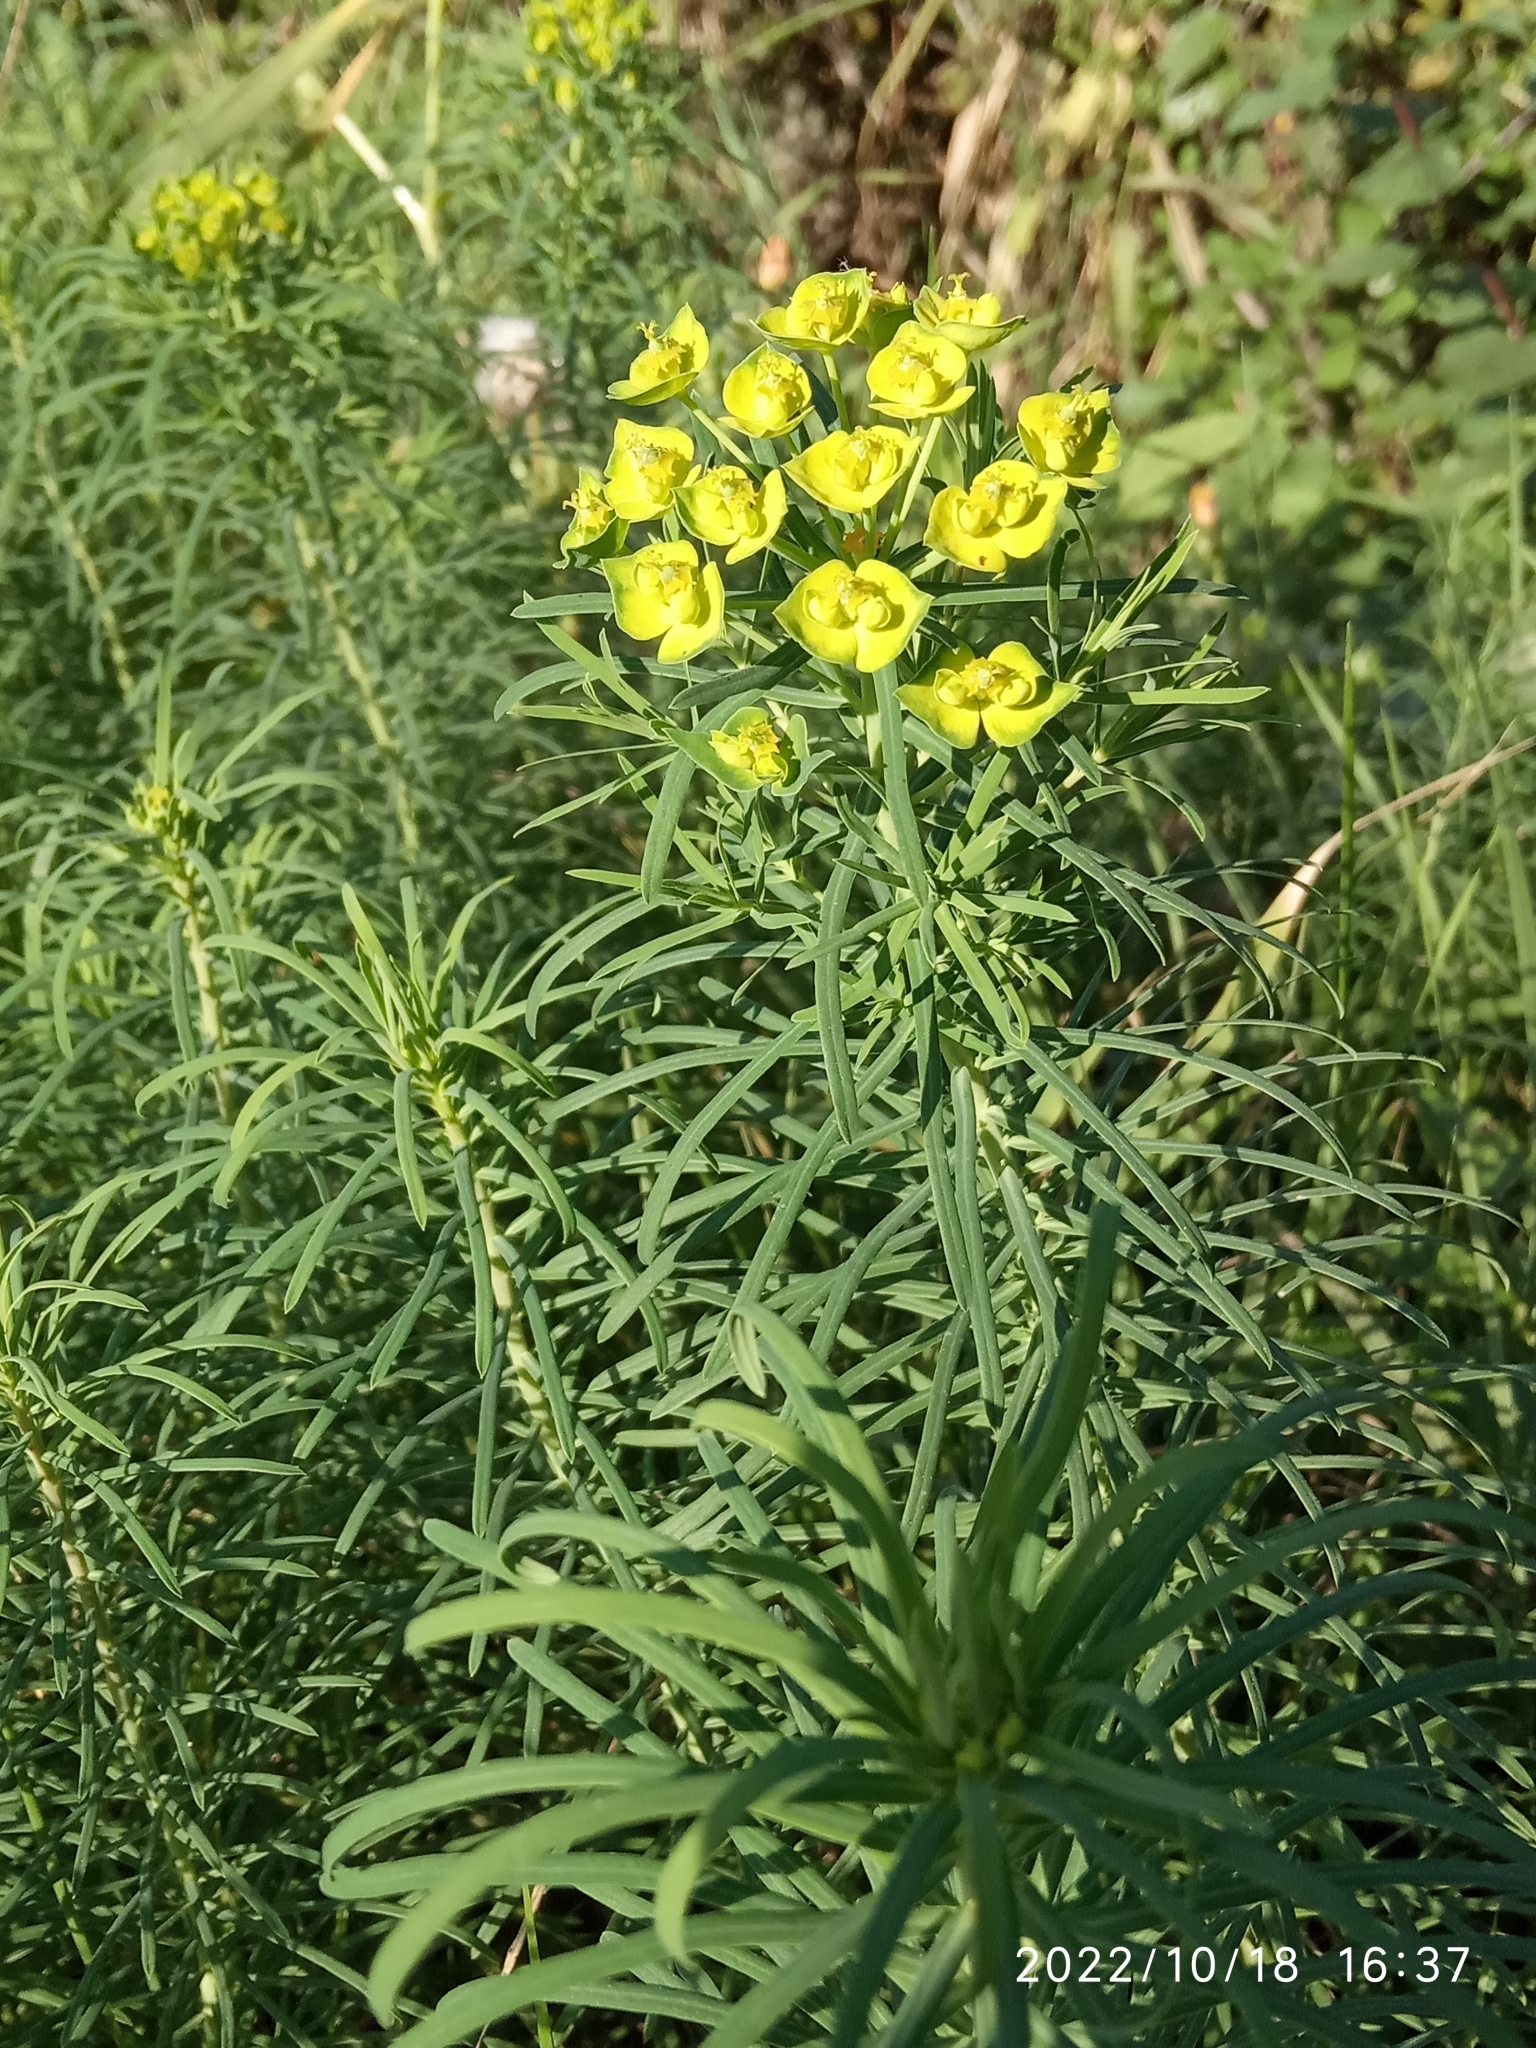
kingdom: Plantae
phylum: Tracheophyta
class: Magnoliopsida
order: Malpighiales
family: Euphorbiaceae
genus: Euphorbia
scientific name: Euphorbia cyparissias
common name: Cypress spurge
